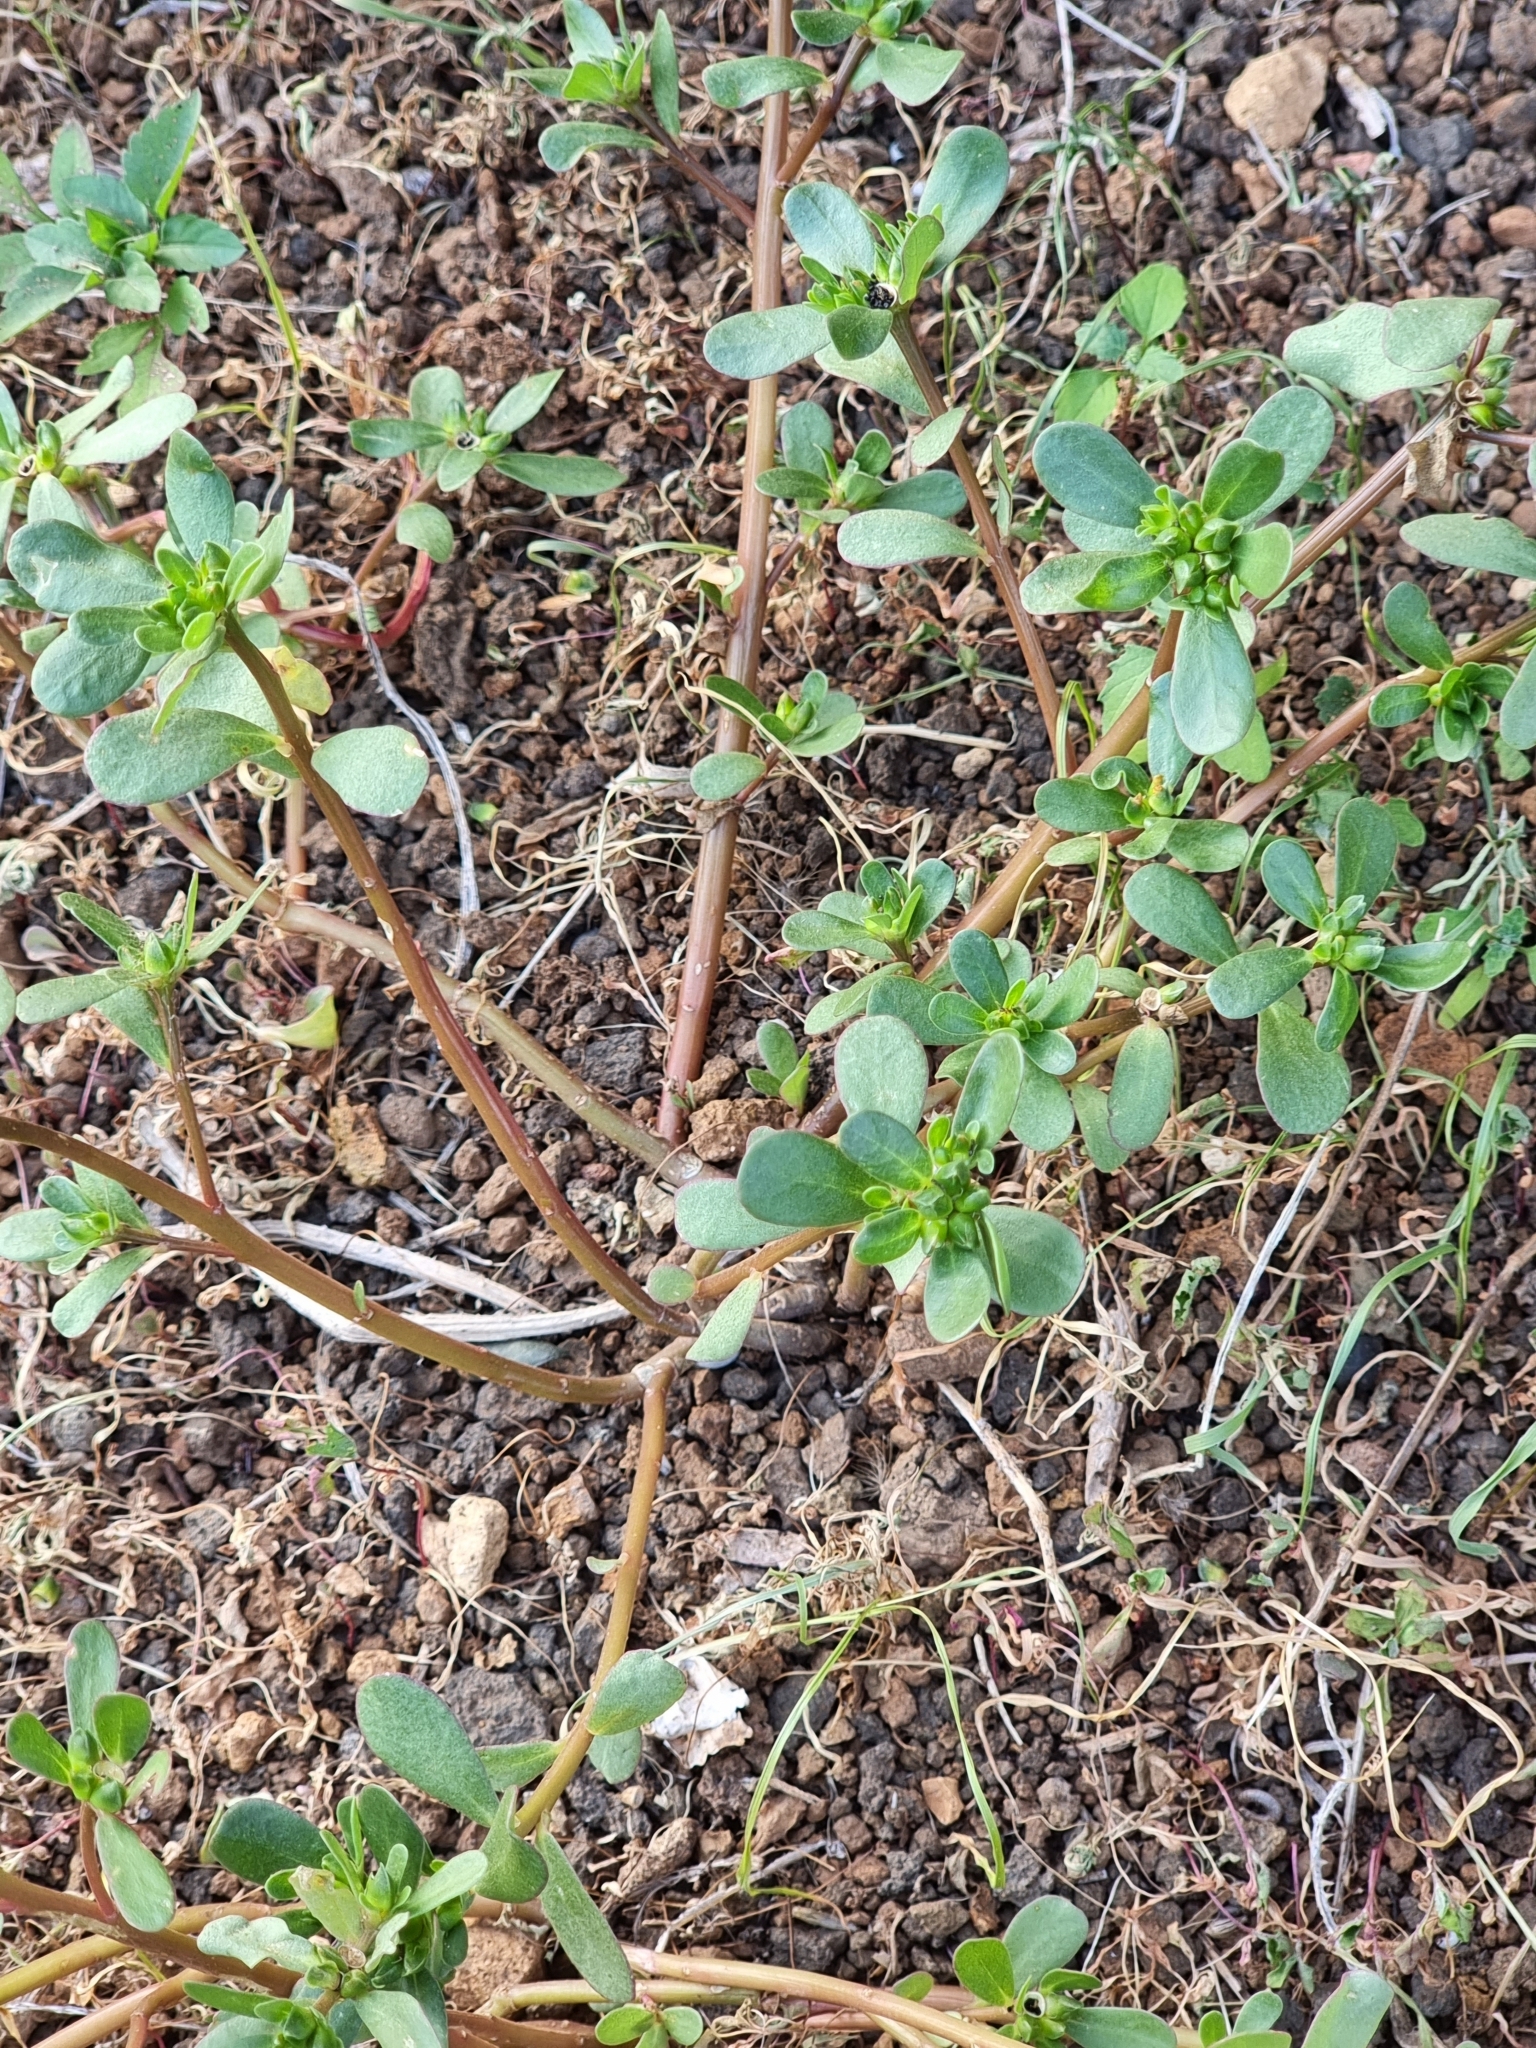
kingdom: Plantae
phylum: Tracheophyta
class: Magnoliopsida
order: Caryophyllales
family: Portulacaceae
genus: Portulaca
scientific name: Portulaca oleracea
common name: Common purslane
